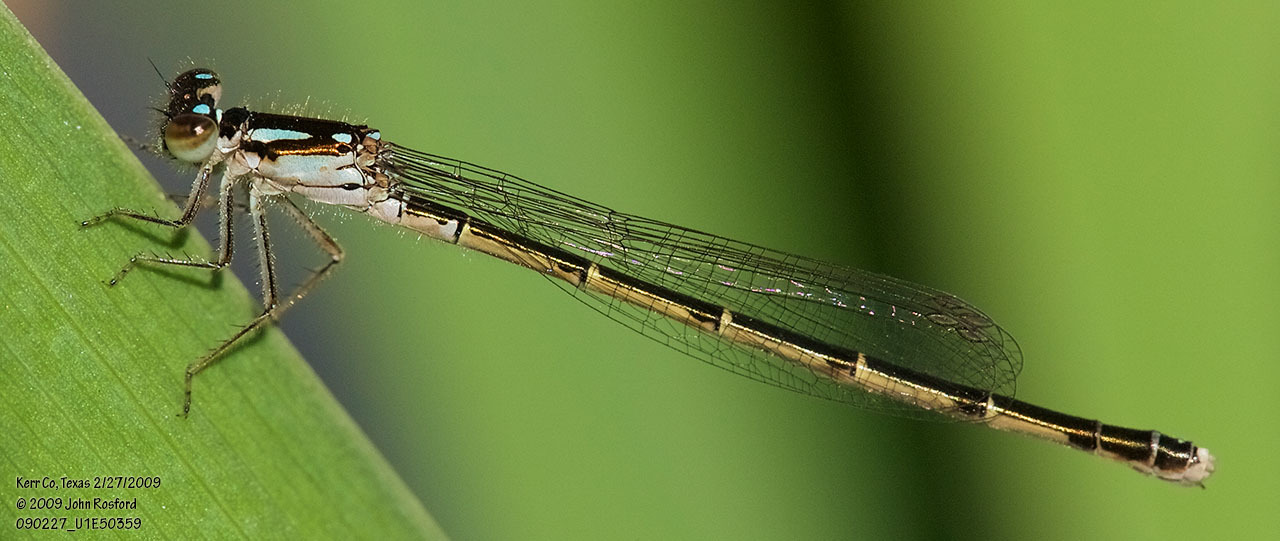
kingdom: Animalia
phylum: Arthropoda
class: Insecta
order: Odonata
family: Coenagrionidae
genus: Ischnura
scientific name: Ischnura posita
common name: Fragile forktail
